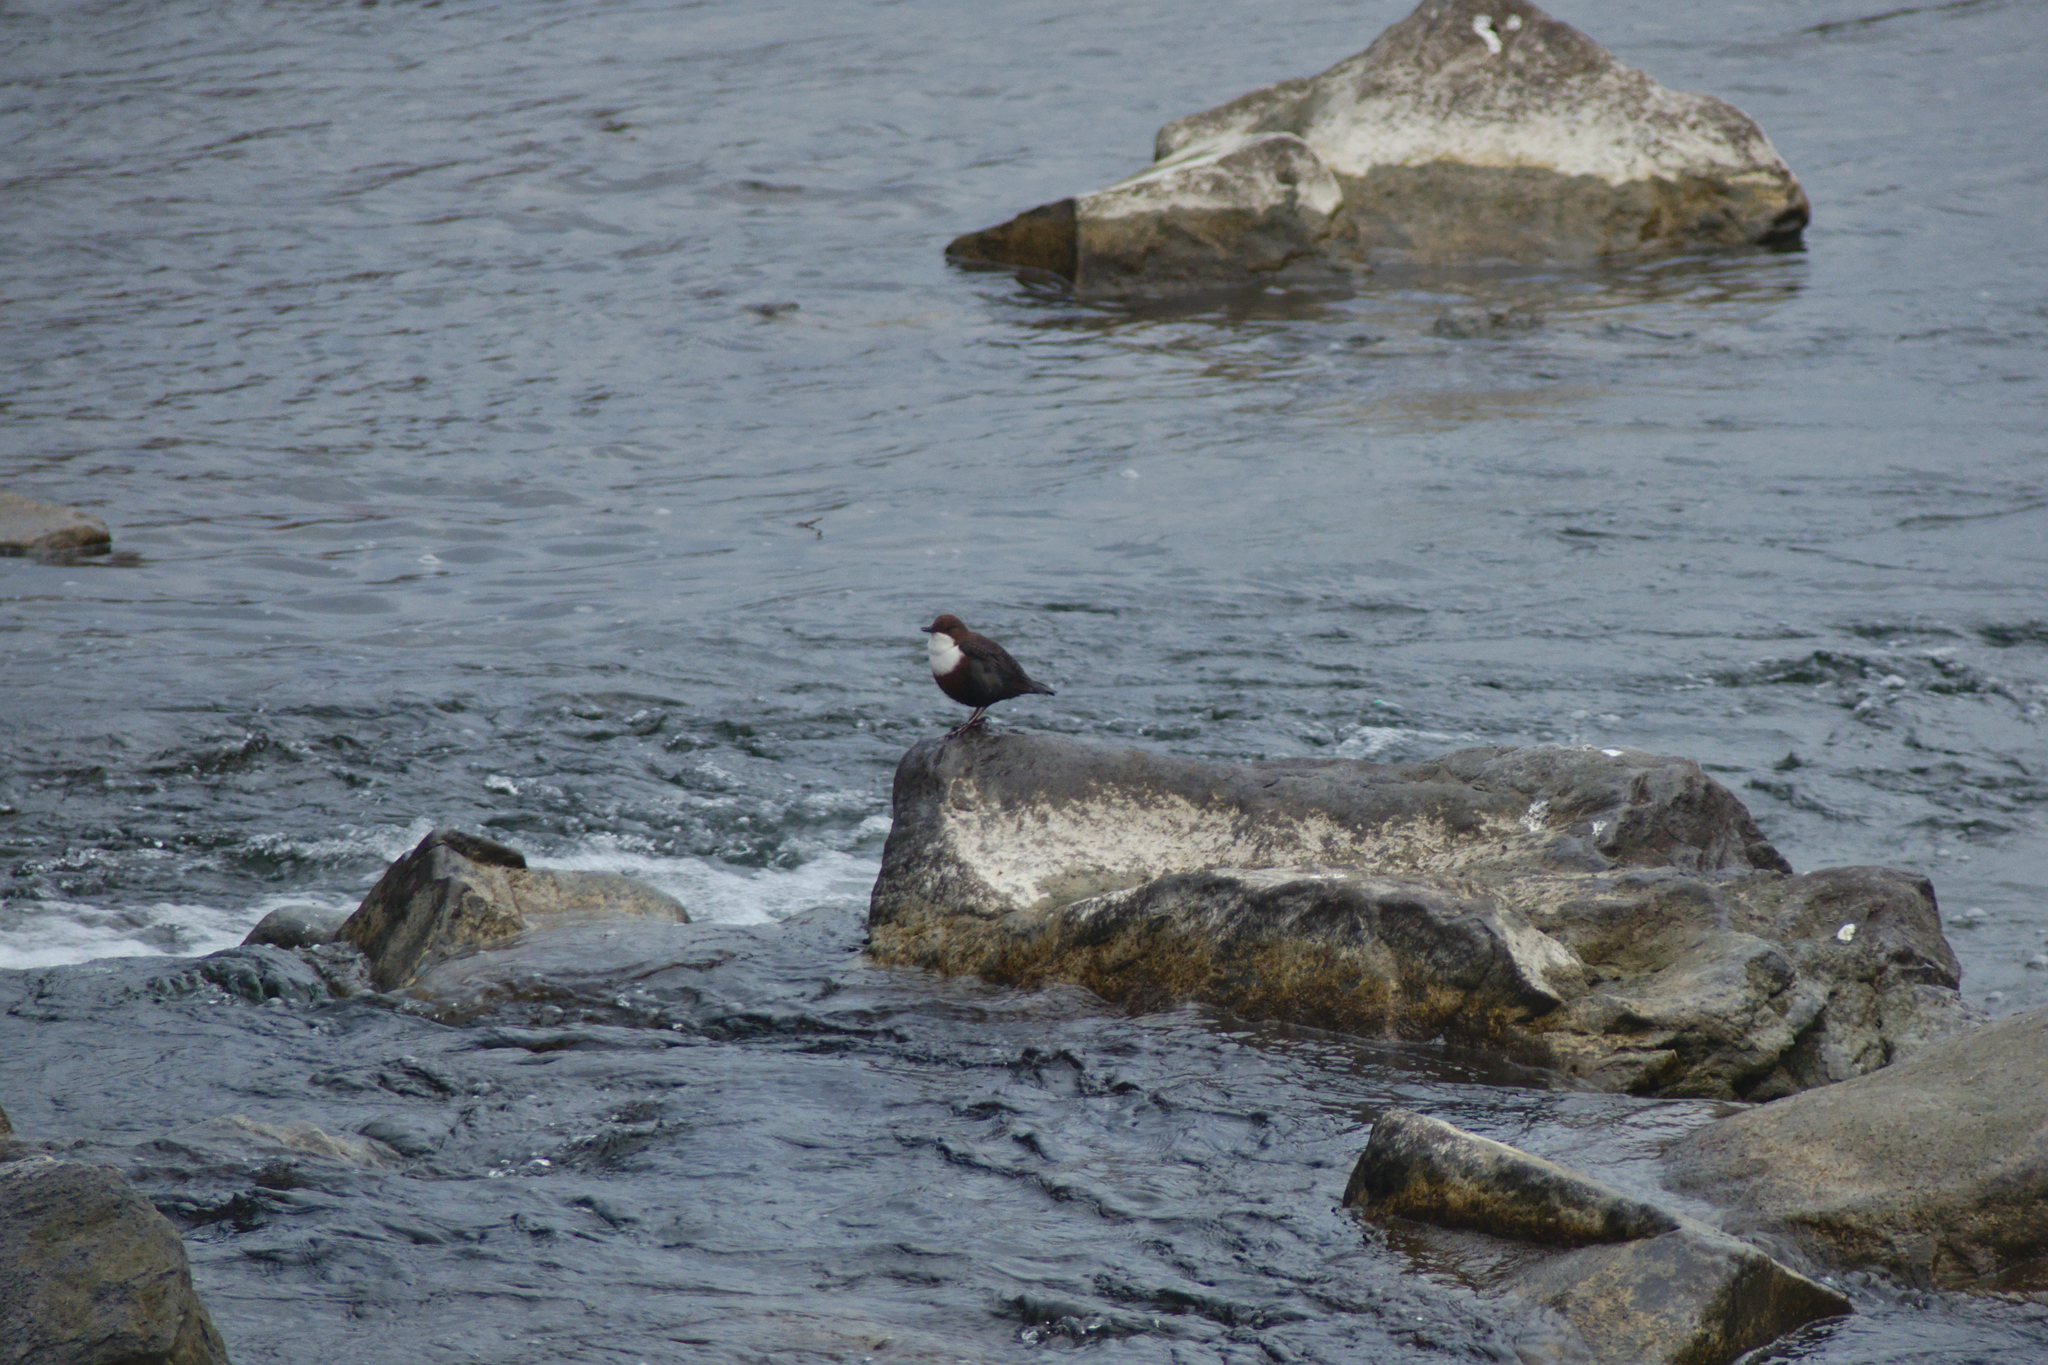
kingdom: Animalia
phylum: Chordata
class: Aves
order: Passeriformes
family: Cinclidae
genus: Cinclus
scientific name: Cinclus cinclus
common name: White-throated dipper
